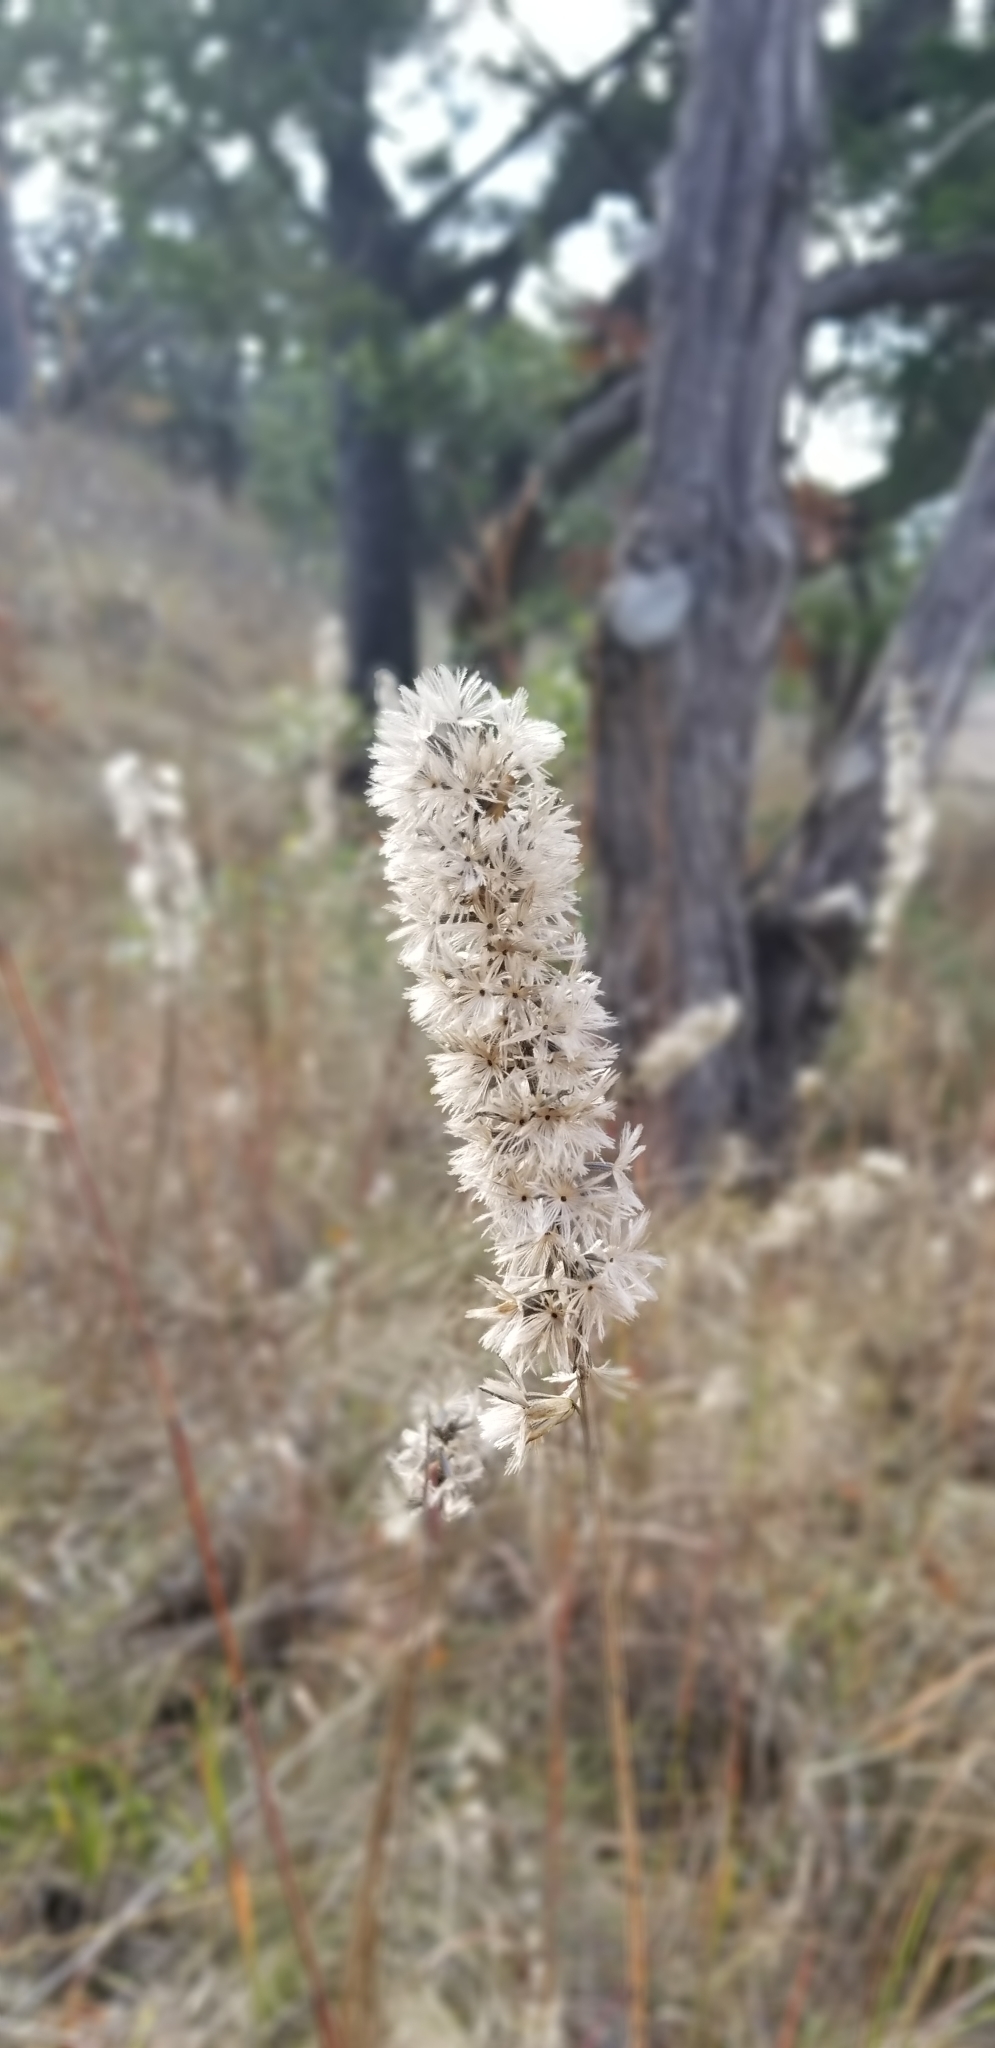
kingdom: Plantae
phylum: Tracheophyta
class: Magnoliopsida
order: Asterales
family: Asteraceae
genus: Liatris
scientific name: Liatris punctata
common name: Dotted gayfeather
